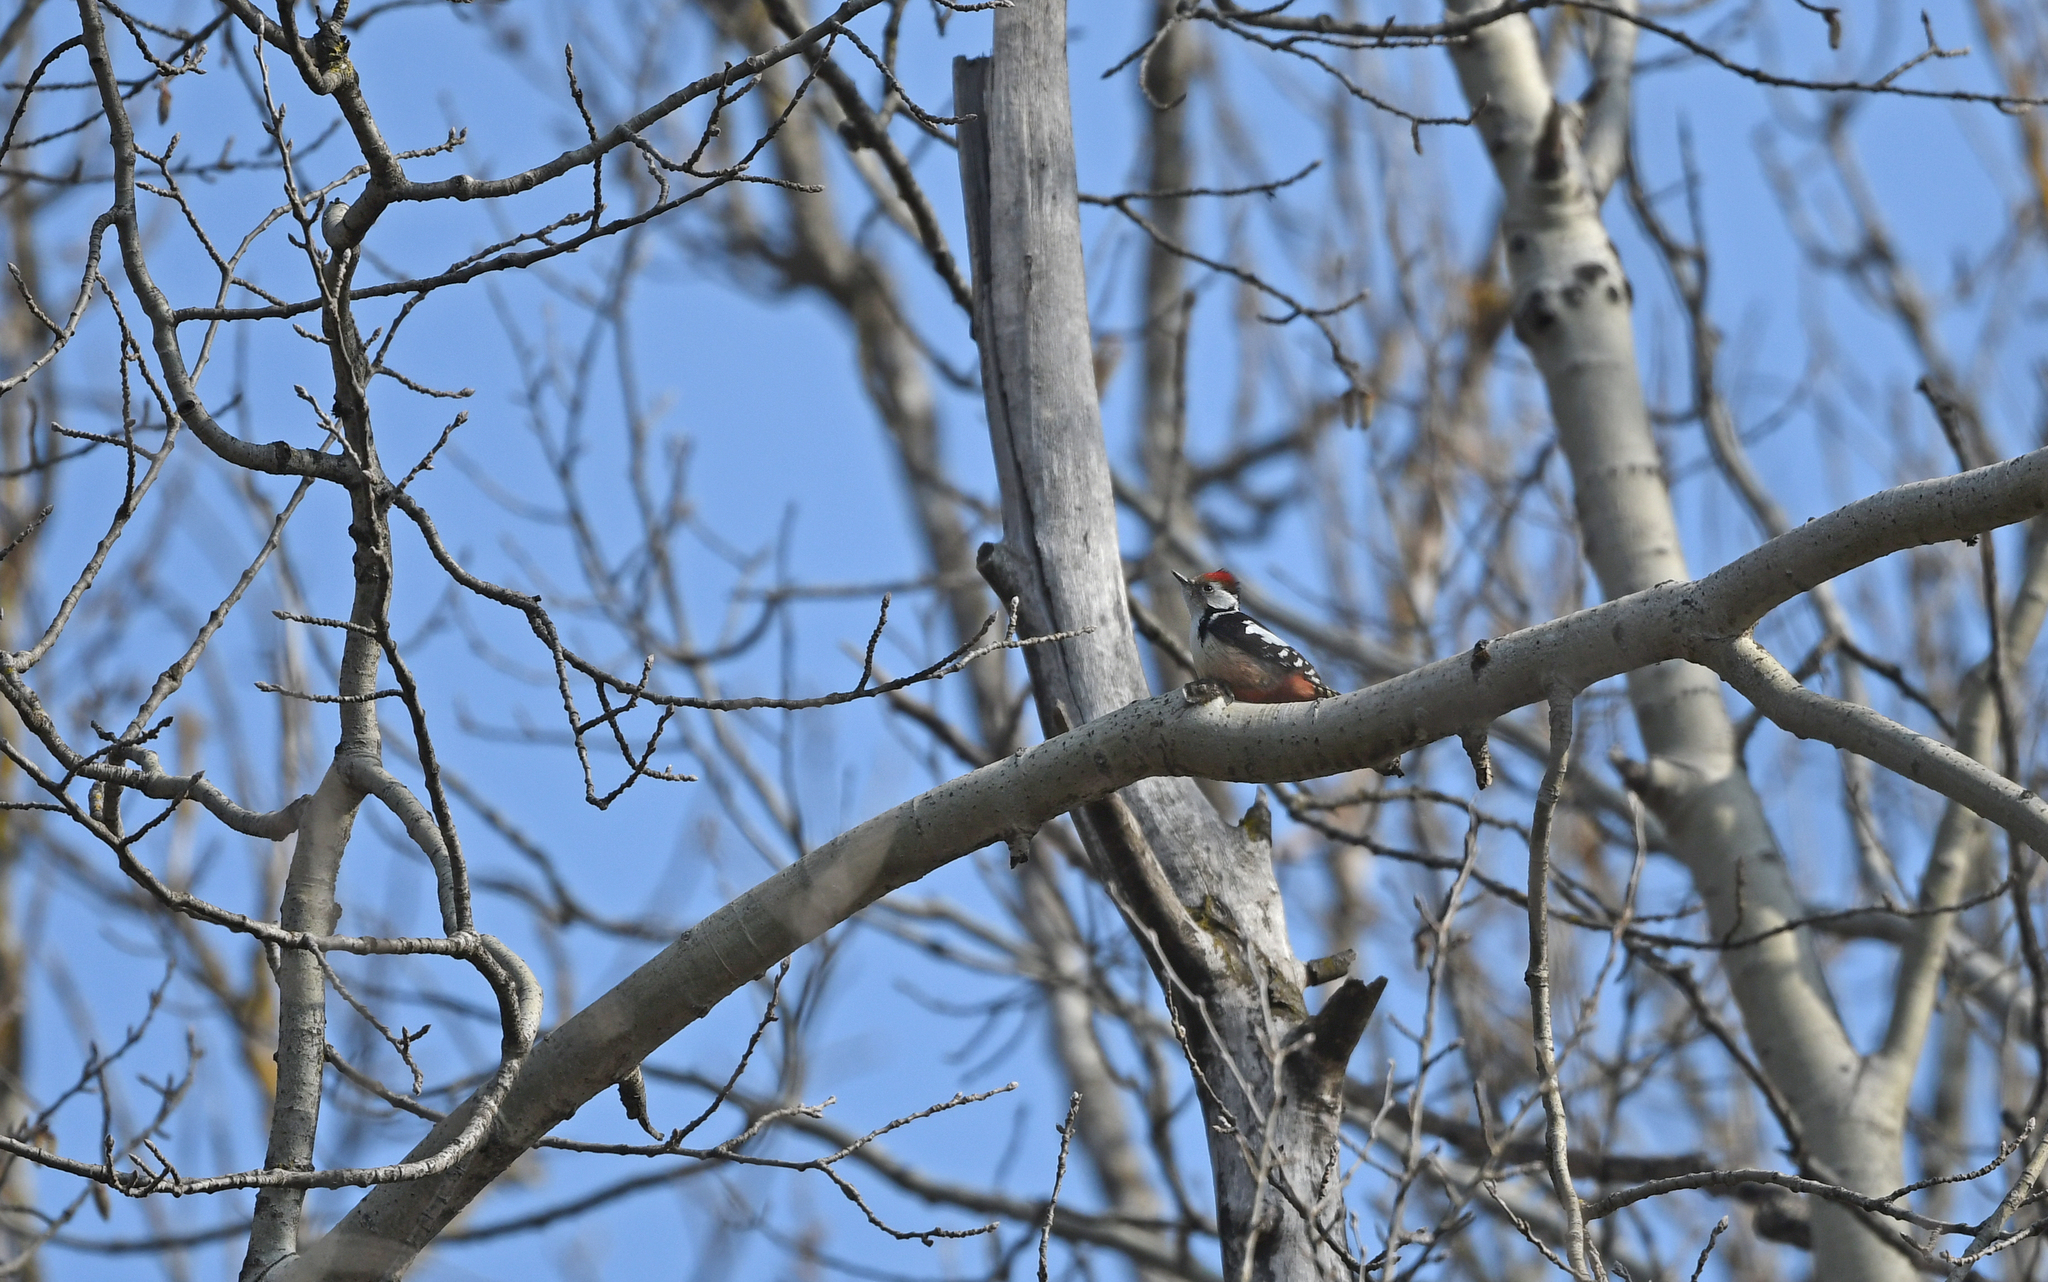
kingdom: Animalia
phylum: Chordata
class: Aves
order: Piciformes
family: Picidae
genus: Dendrocoptes
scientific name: Dendrocoptes medius
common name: Middle spotted woodpecker
